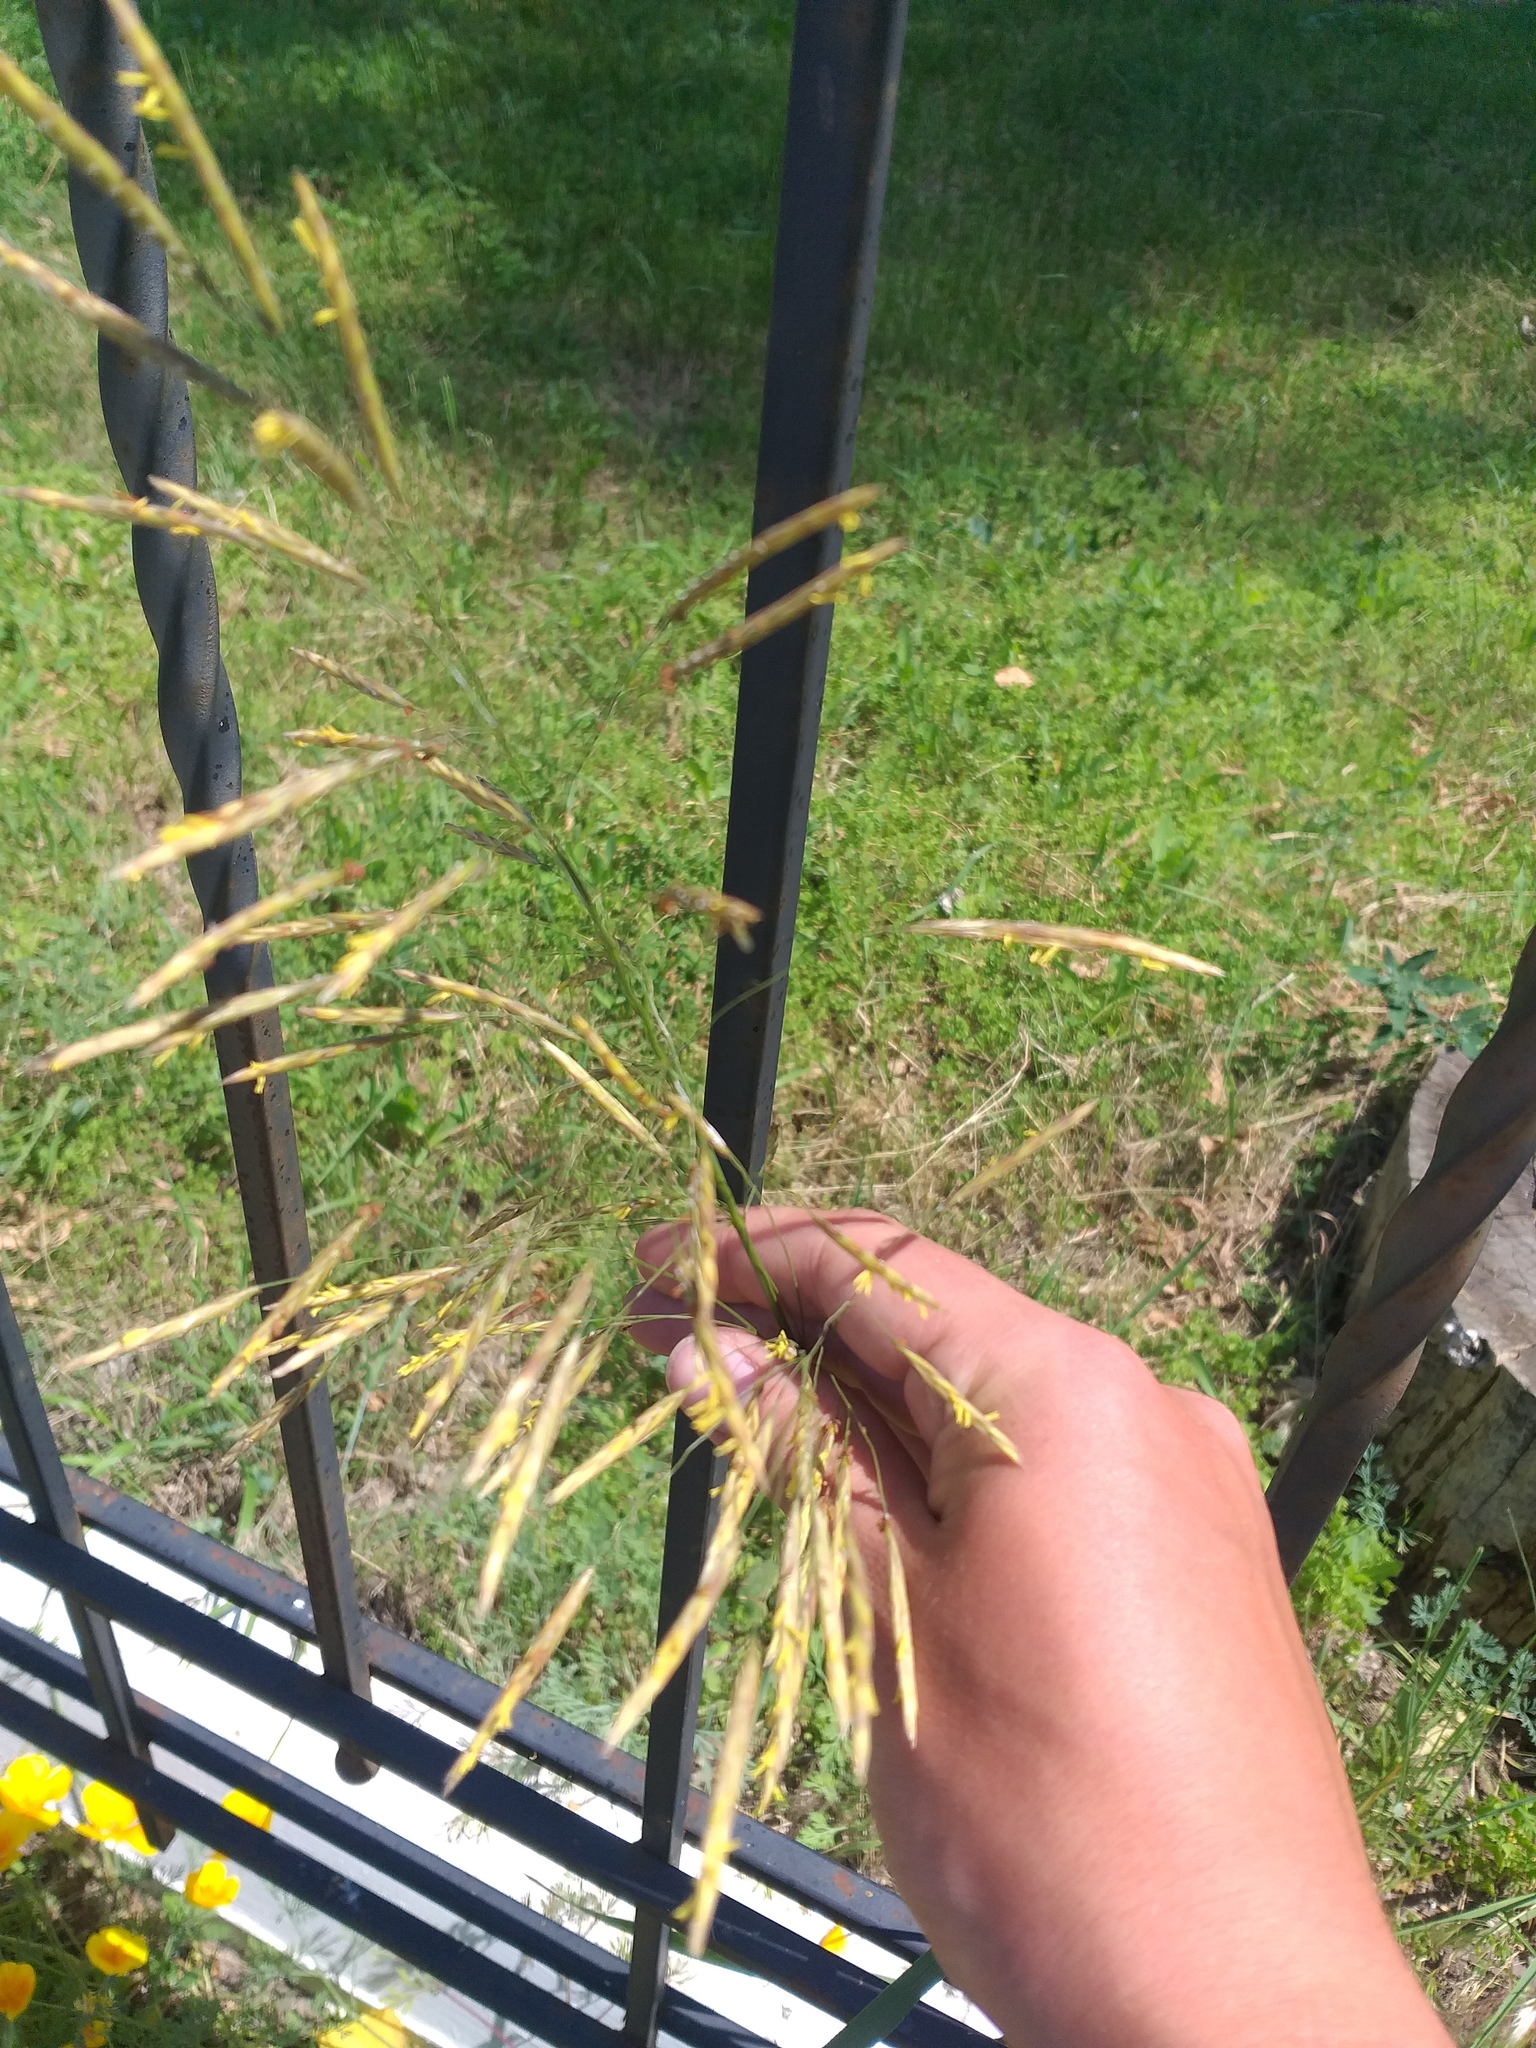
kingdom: Plantae
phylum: Tracheophyta
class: Liliopsida
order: Poales
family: Poaceae
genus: Bromus
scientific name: Bromus inermis
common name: Smooth brome
